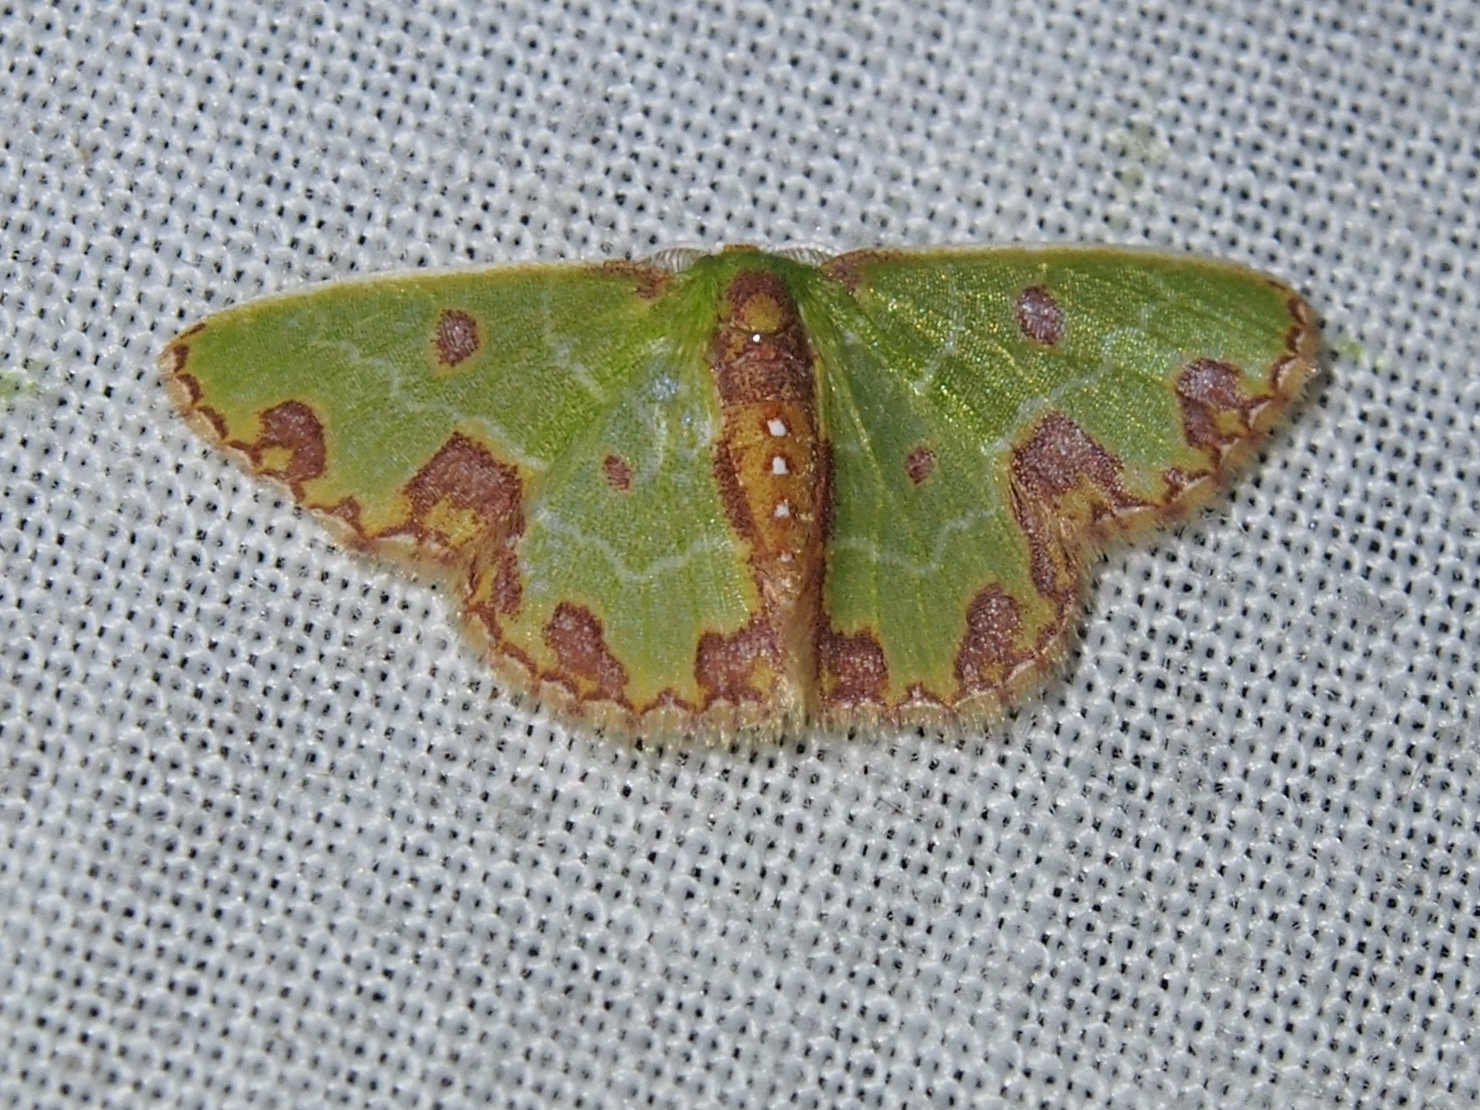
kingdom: Animalia
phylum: Arthropoda
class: Insecta
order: Lepidoptera
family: Geometridae
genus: Synchlora
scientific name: Synchlora gerularia
